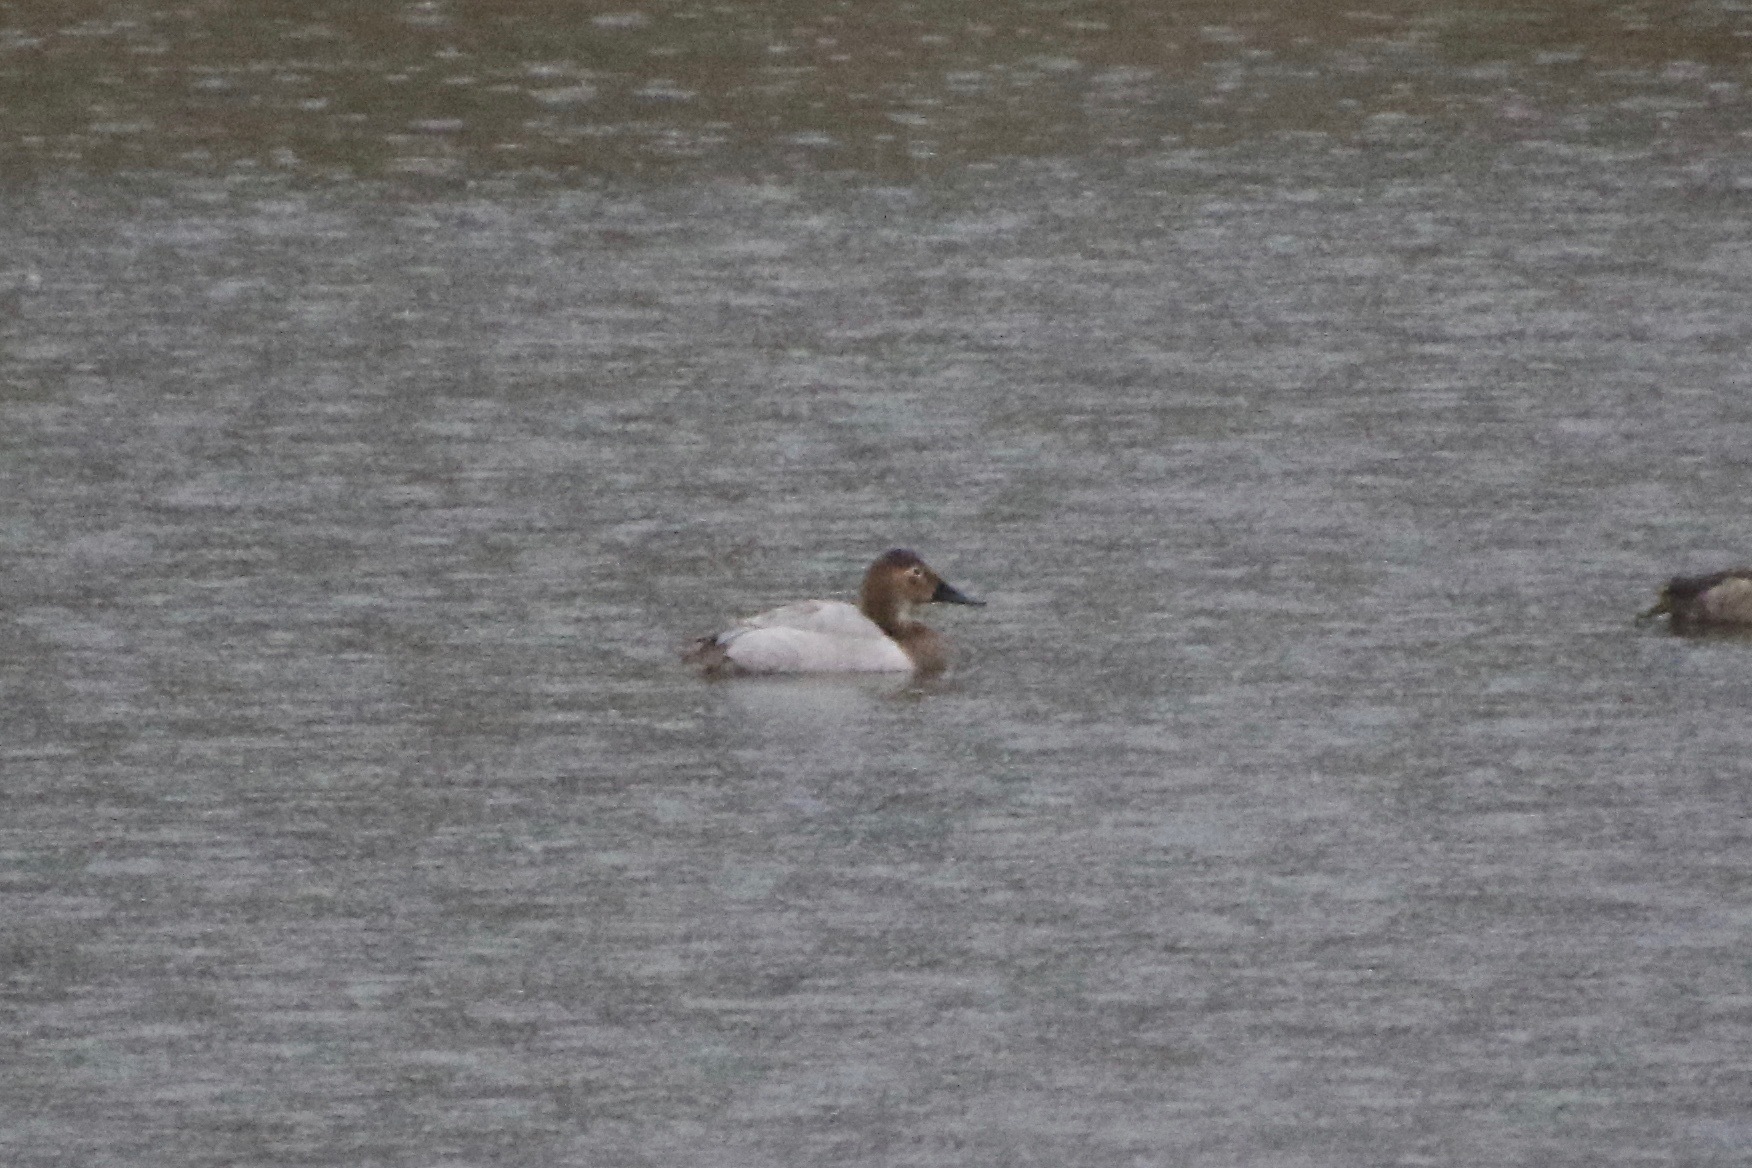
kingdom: Animalia
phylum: Chordata
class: Aves
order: Anseriformes
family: Anatidae
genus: Aythya
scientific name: Aythya valisineria
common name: Canvasback
